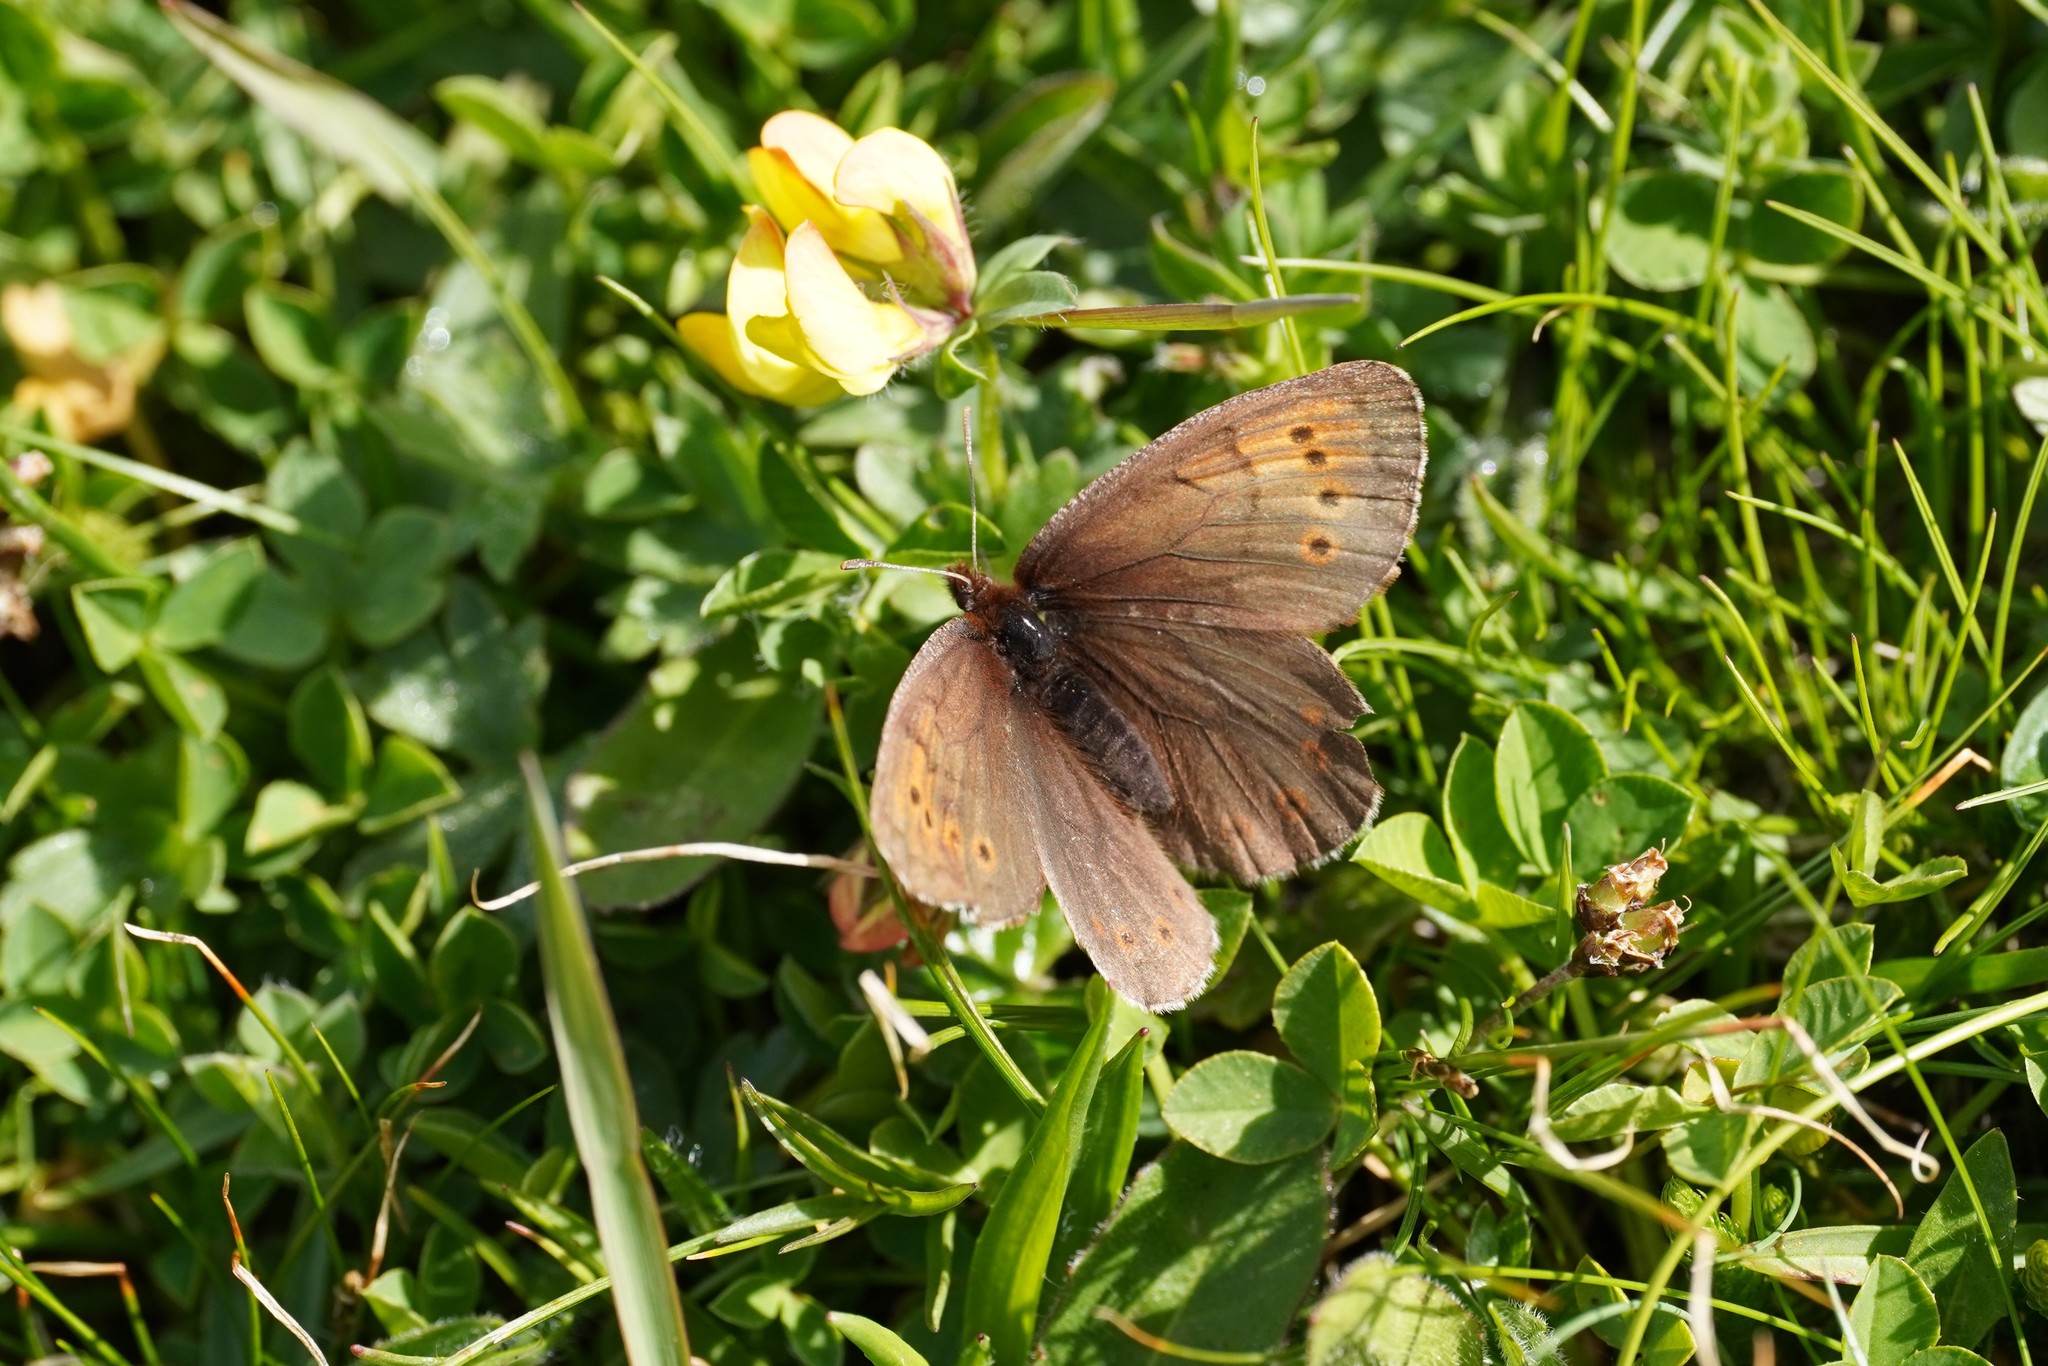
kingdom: Animalia
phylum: Arthropoda
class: Insecta
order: Lepidoptera
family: Nymphalidae
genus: Erebia
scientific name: Erebia pandrose
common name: Dewy ringlet
